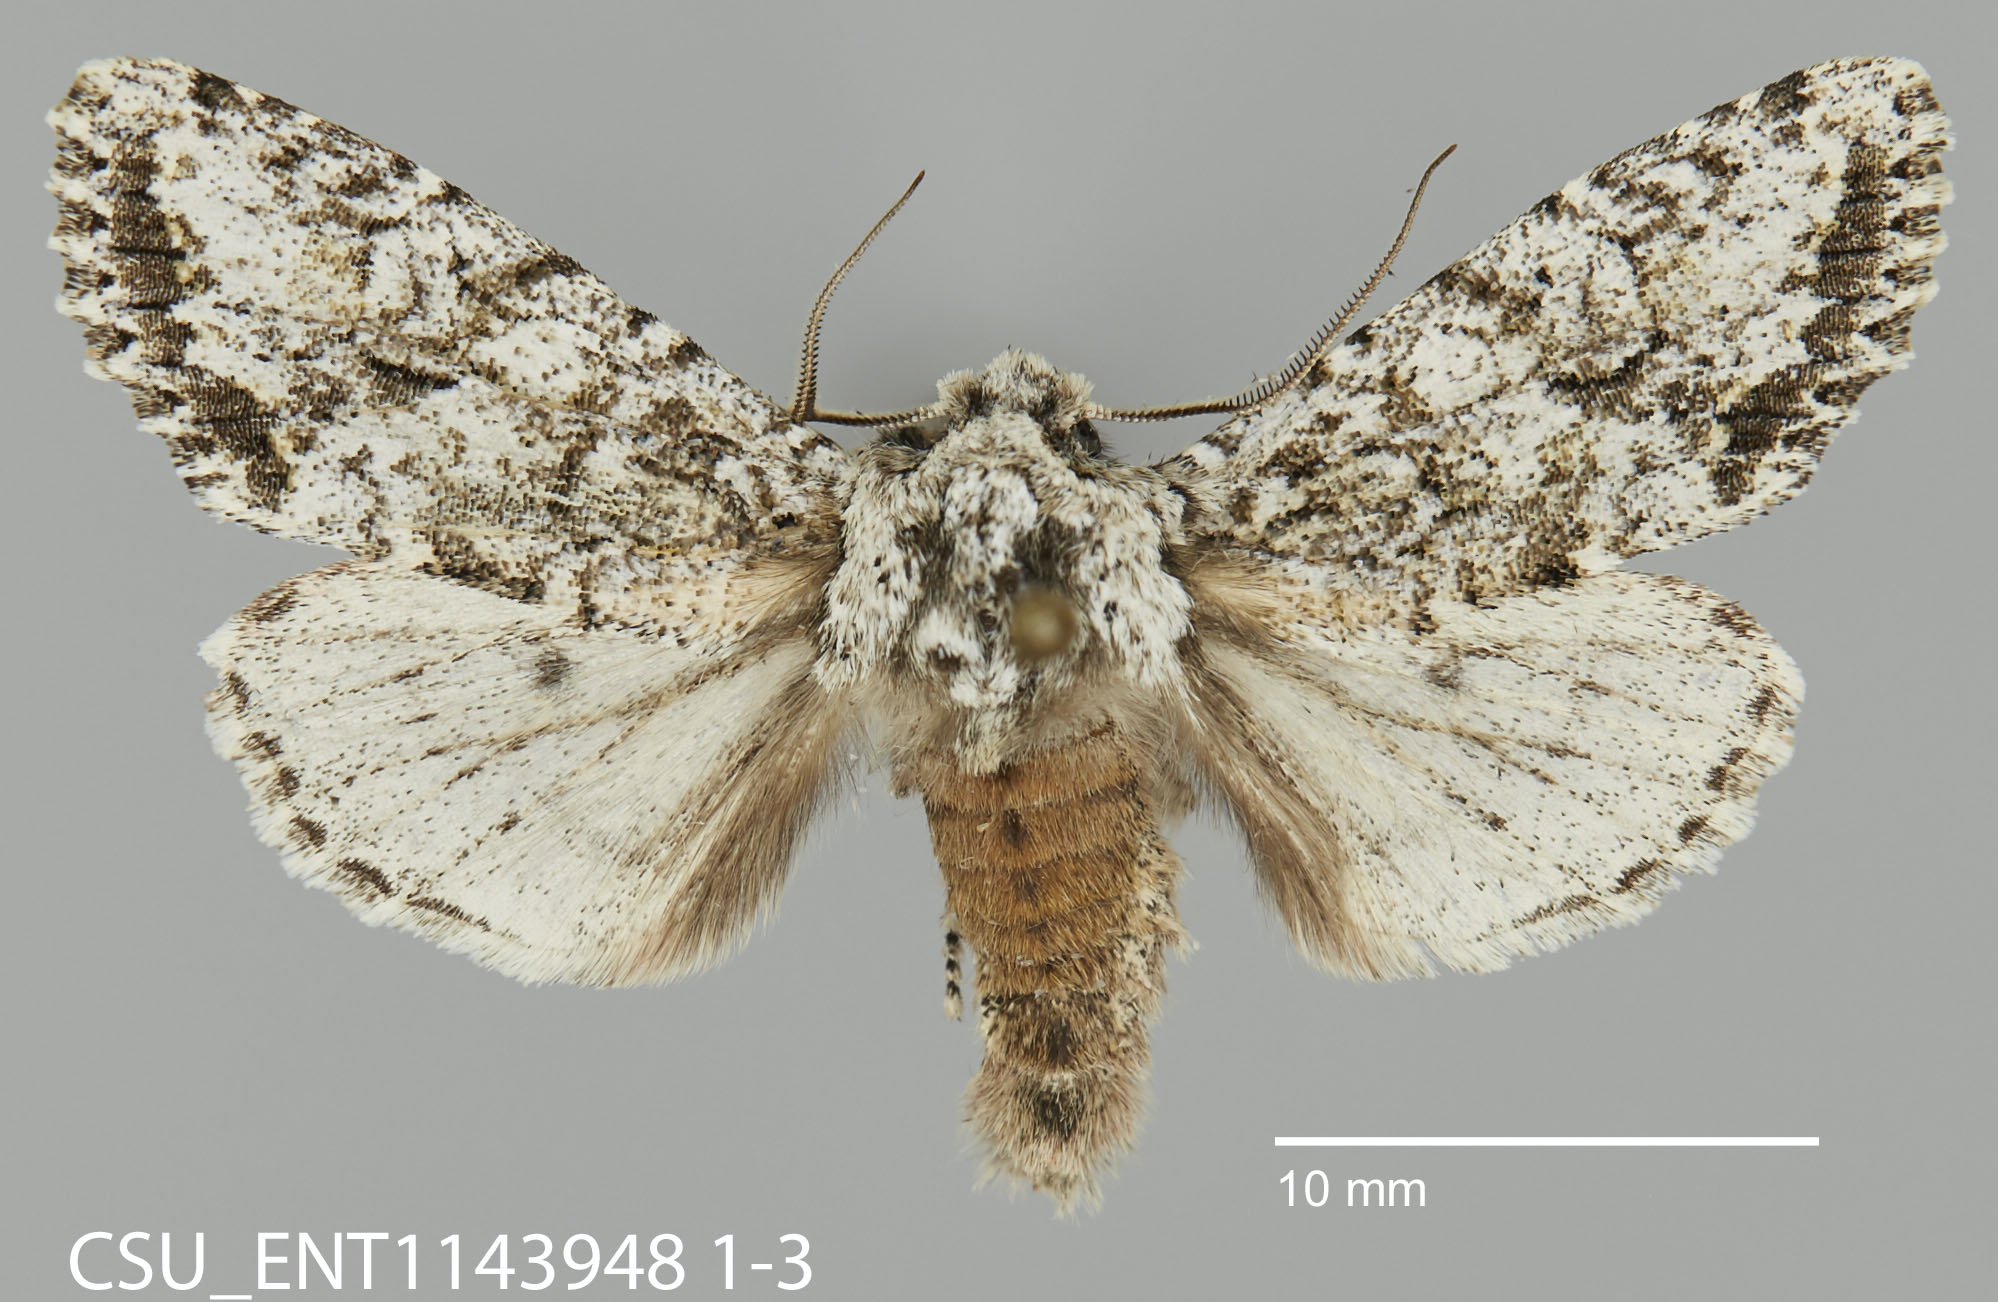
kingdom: Animalia
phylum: Arthropoda
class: Insecta
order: Lepidoptera
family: Noctuidae
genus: Egira
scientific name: Egira cognata
